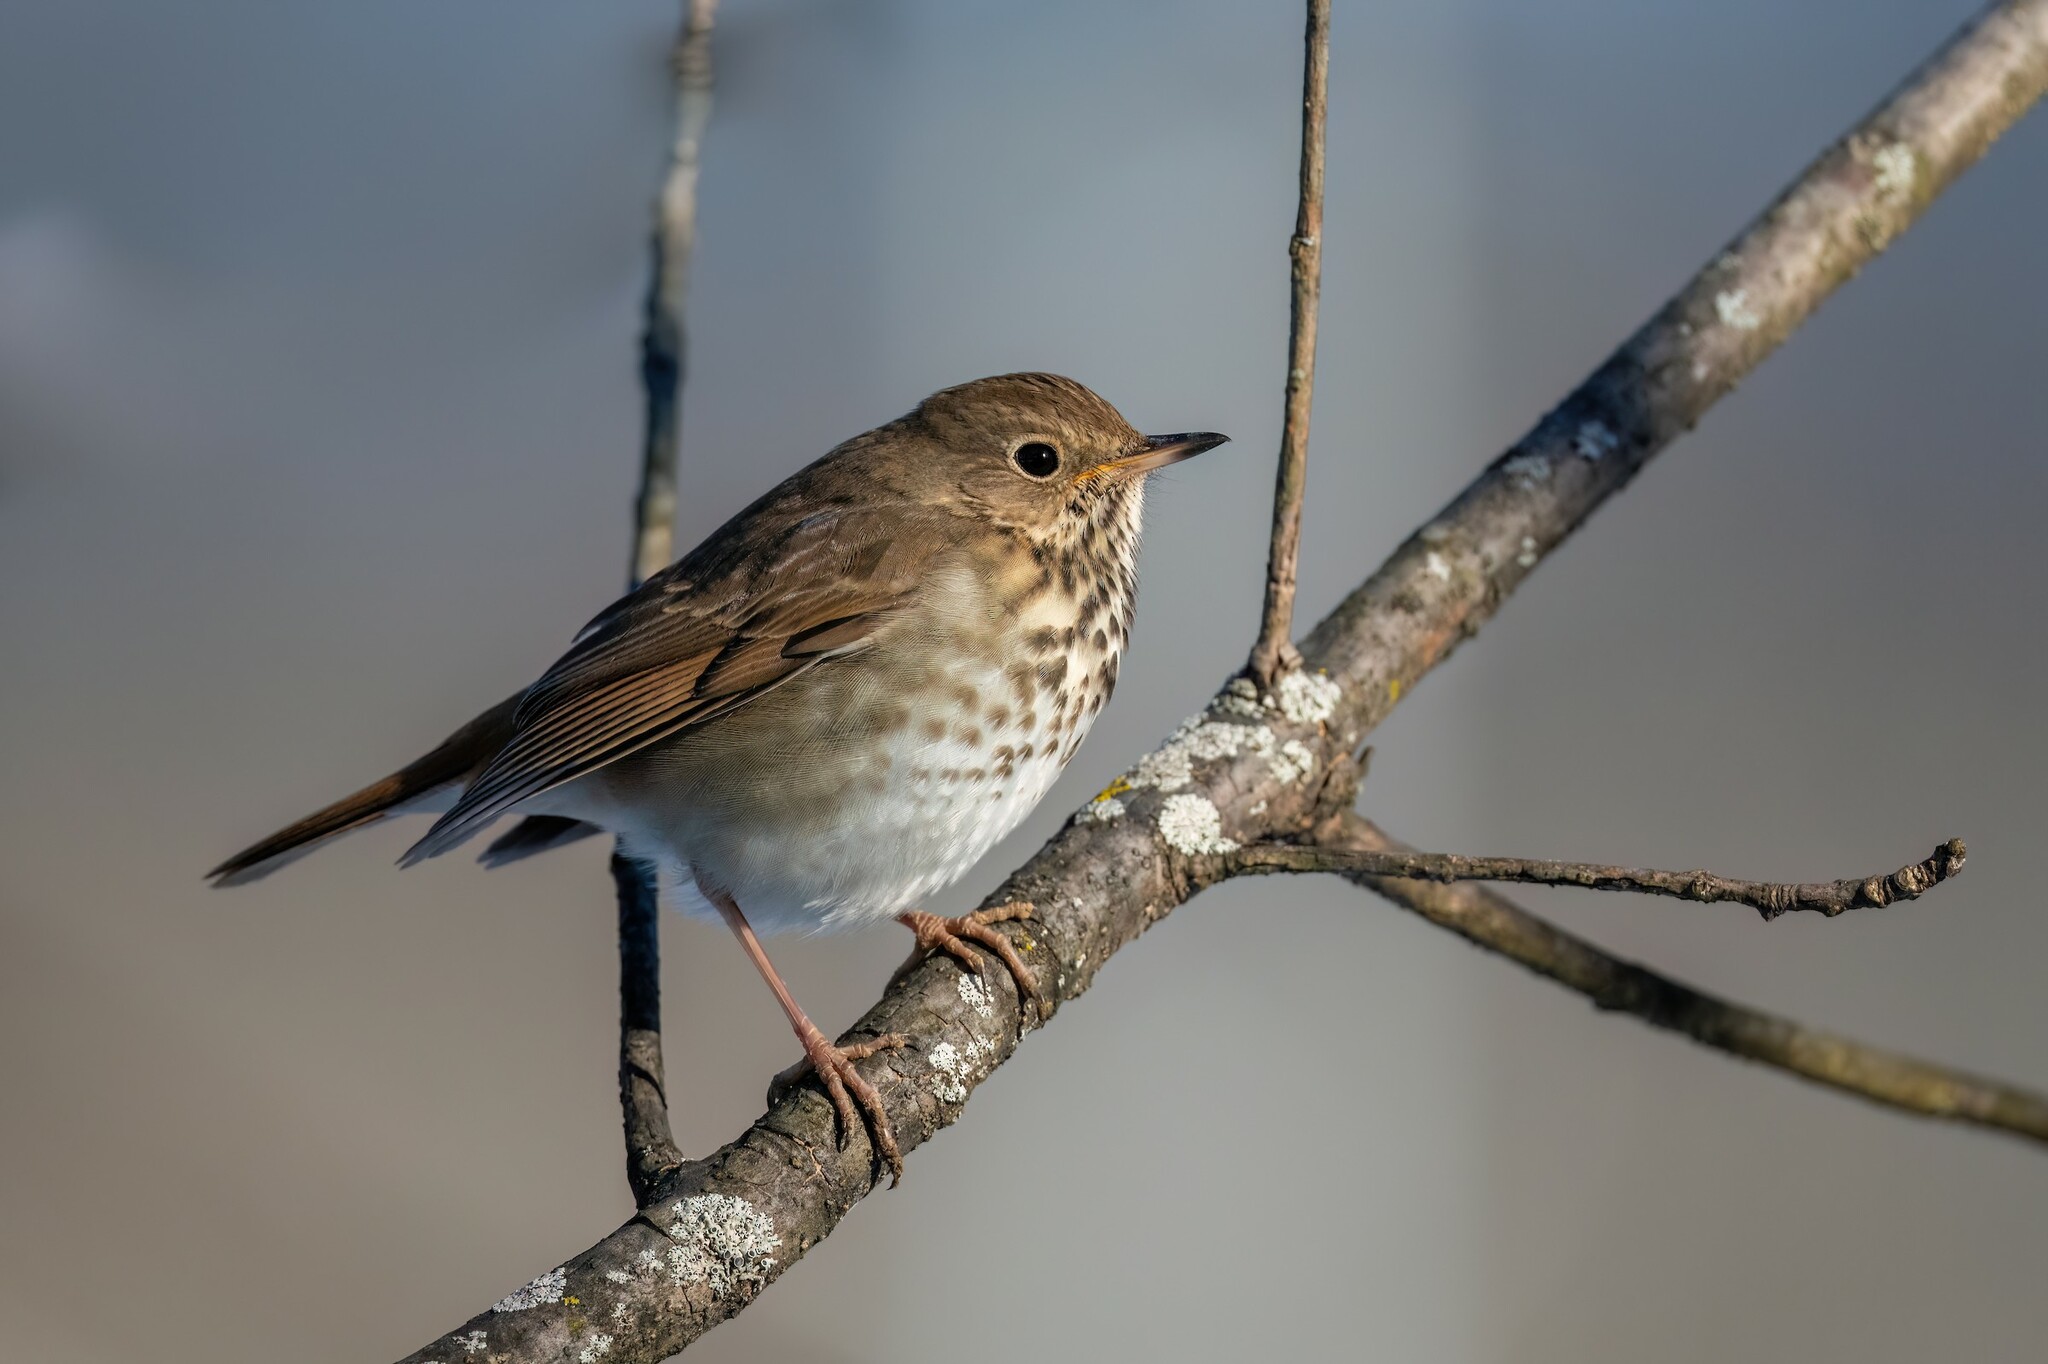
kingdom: Animalia
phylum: Chordata
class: Aves
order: Passeriformes
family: Turdidae
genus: Catharus
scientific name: Catharus guttatus
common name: Hermit thrush
